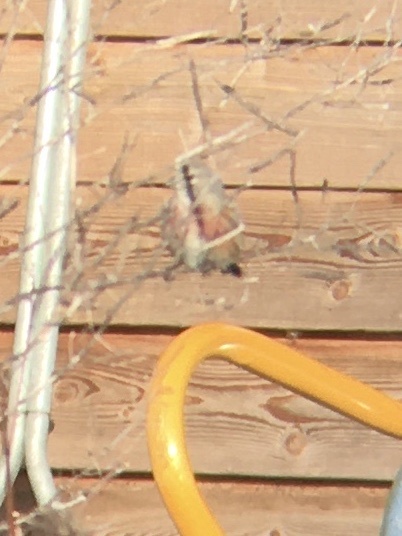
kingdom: Animalia
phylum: Chordata
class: Aves
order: Passeriformes
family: Fringillidae
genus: Linaria
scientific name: Linaria cannabina
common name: Common linnet
